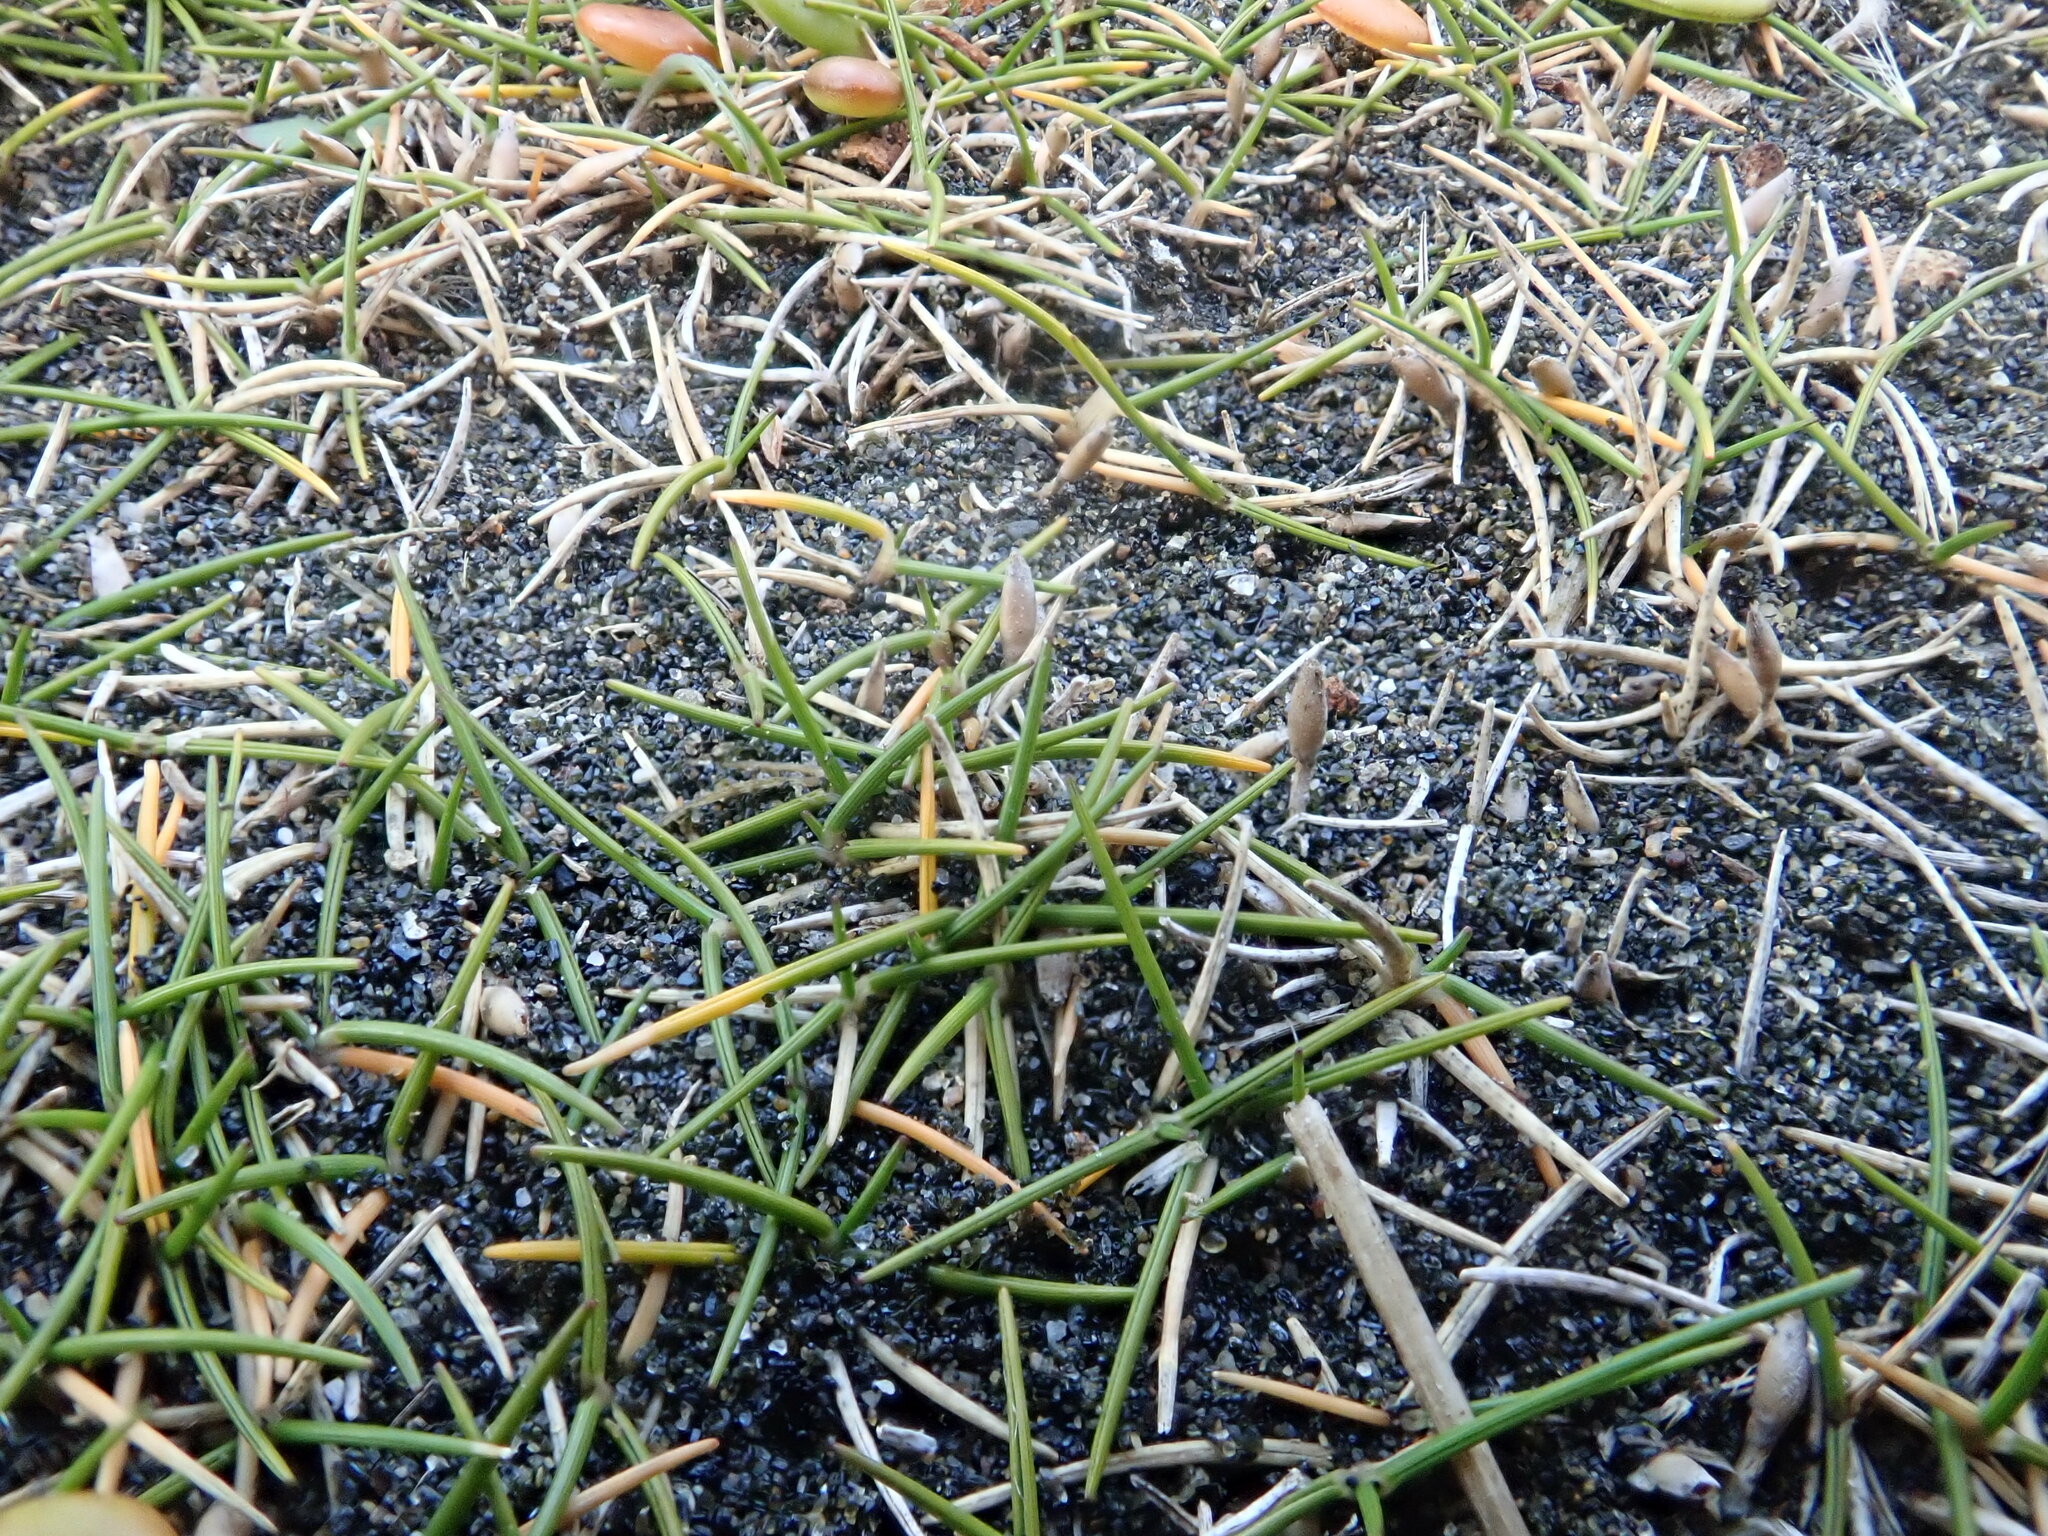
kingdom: Plantae
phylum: Tracheophyta
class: Liliopsida
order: Poales
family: Poaceae
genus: Zoysia
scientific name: Zoysia minima
